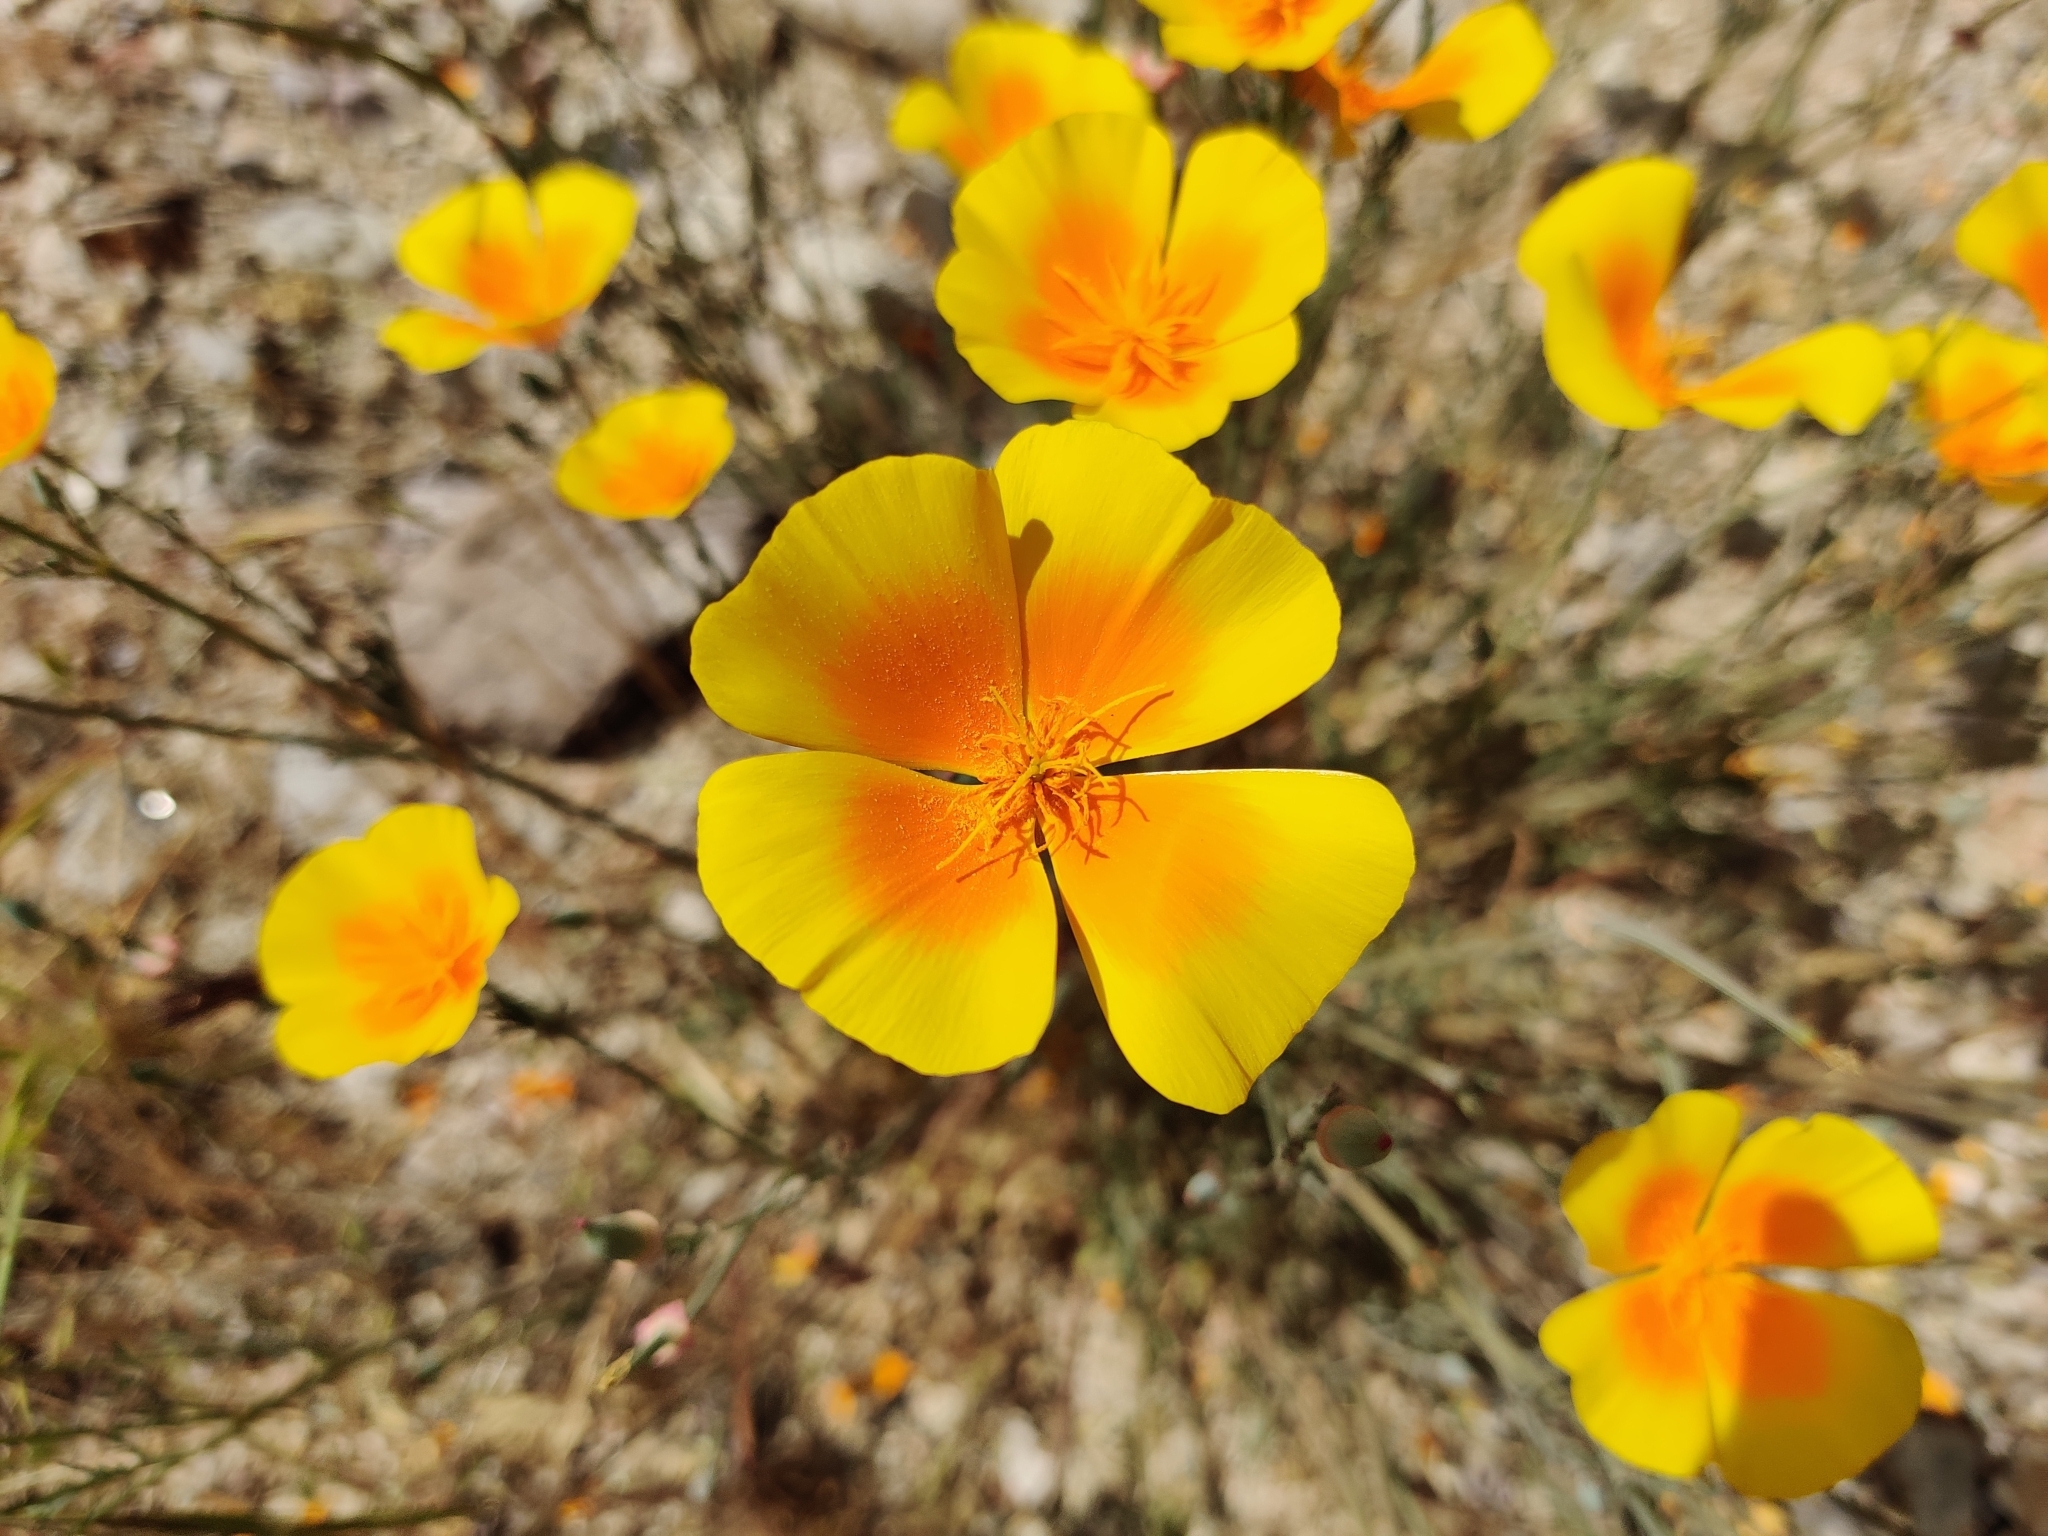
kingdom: Plantae
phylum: Tracheophyta
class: Magnoliopsida
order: Ranunculales
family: Papaveraceae
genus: Eschscholzia
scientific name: Eschscholzia
